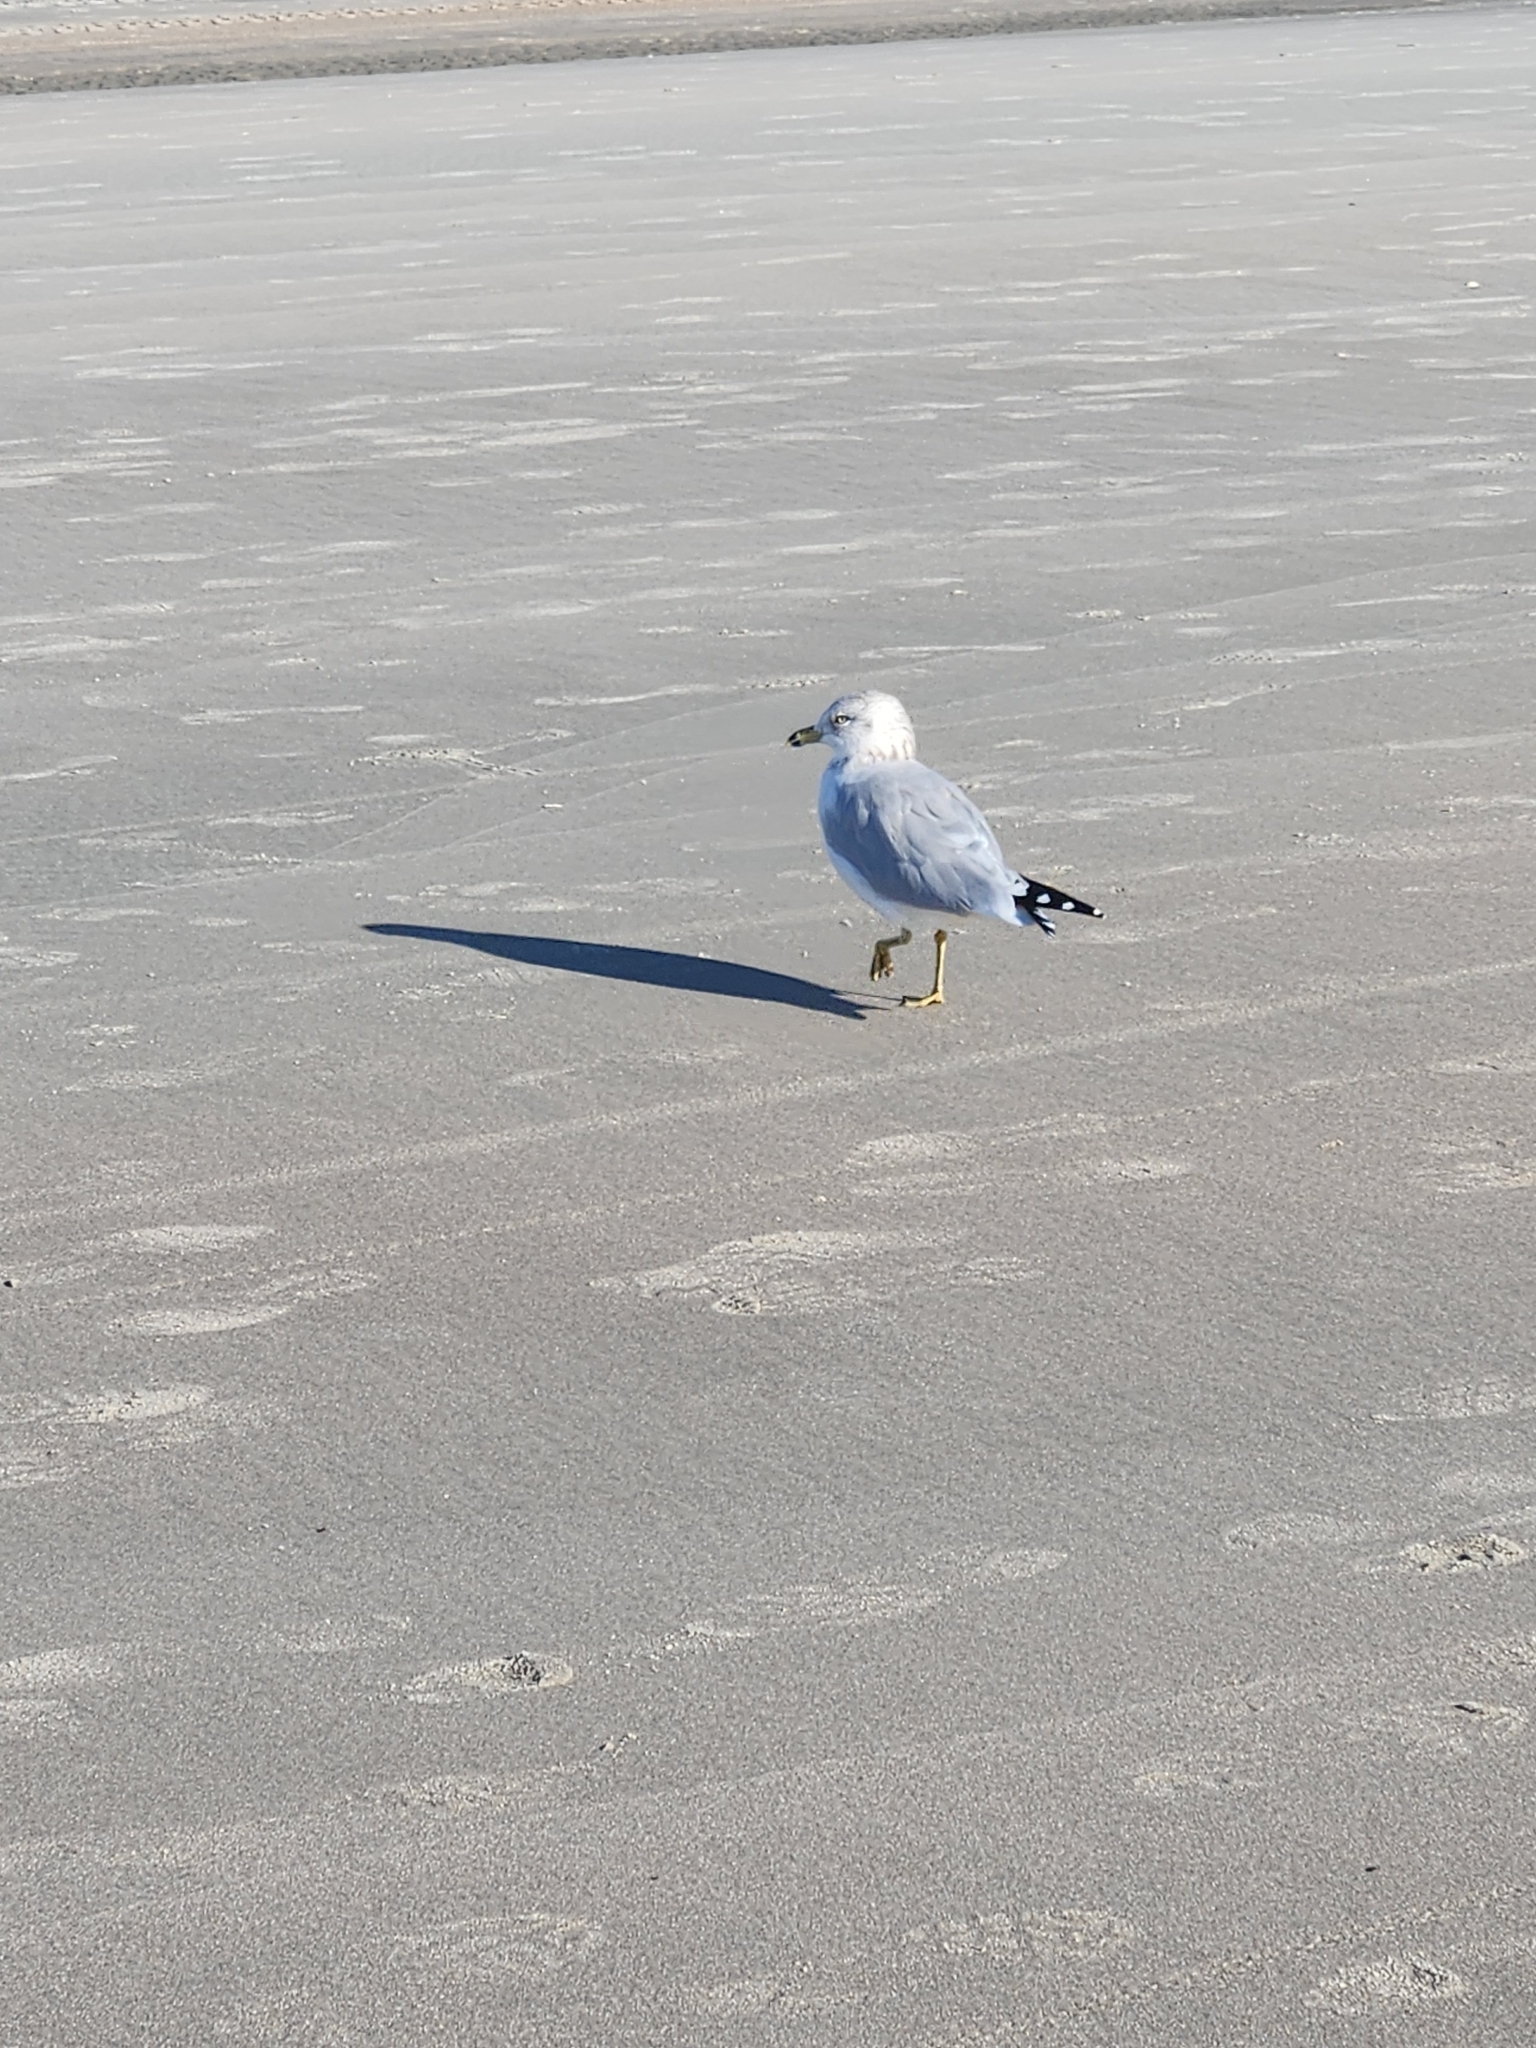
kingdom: Animalia
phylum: Chordata
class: Aves
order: Charadriiformes
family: Laridae
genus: Larus
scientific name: Larus delawarensis
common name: Ring-billed gull
